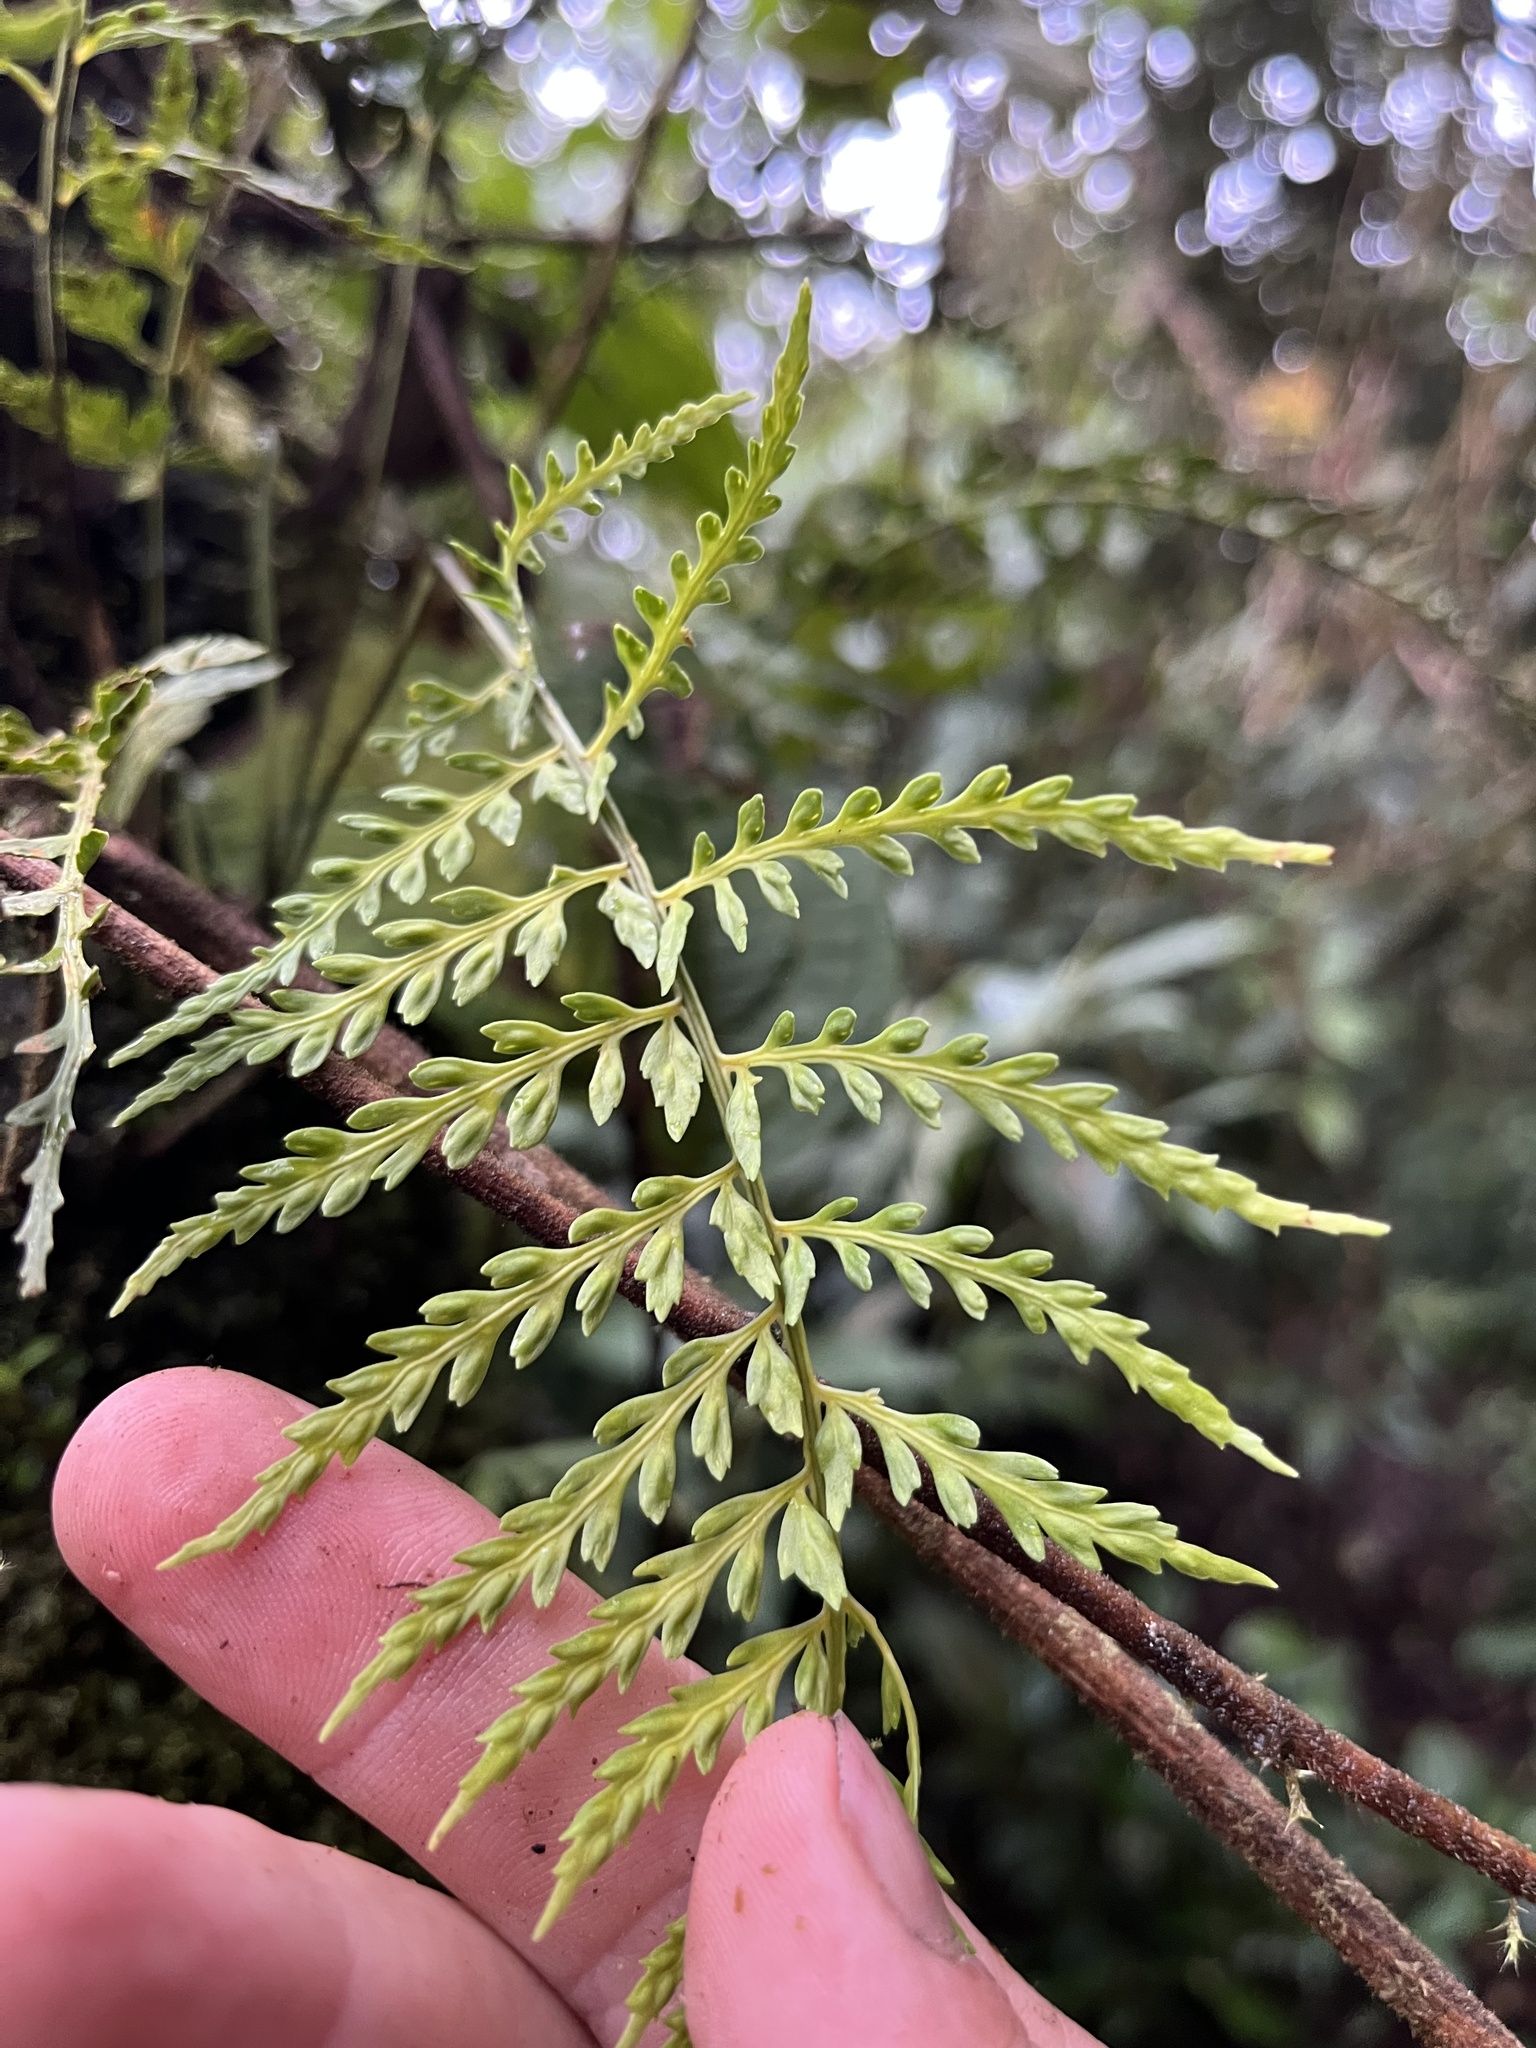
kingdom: Plantae
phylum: Tracheophyta
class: Polypodiopsida
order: Polypodiales
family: Aspleniaceae
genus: Asplenium
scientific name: Asplenium cuspidatum
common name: Eared spleenwort
